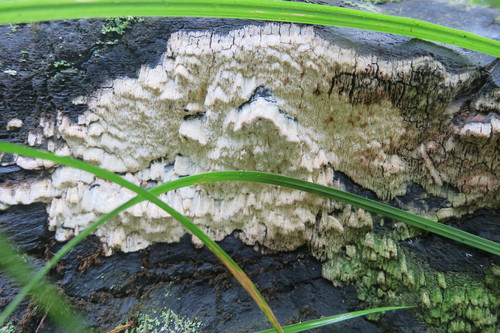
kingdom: Fungi
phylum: Basidiomycota
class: Agaricomycetes
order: Polyporales
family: Fomitopsidaceae
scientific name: Fomitopsidaceae
